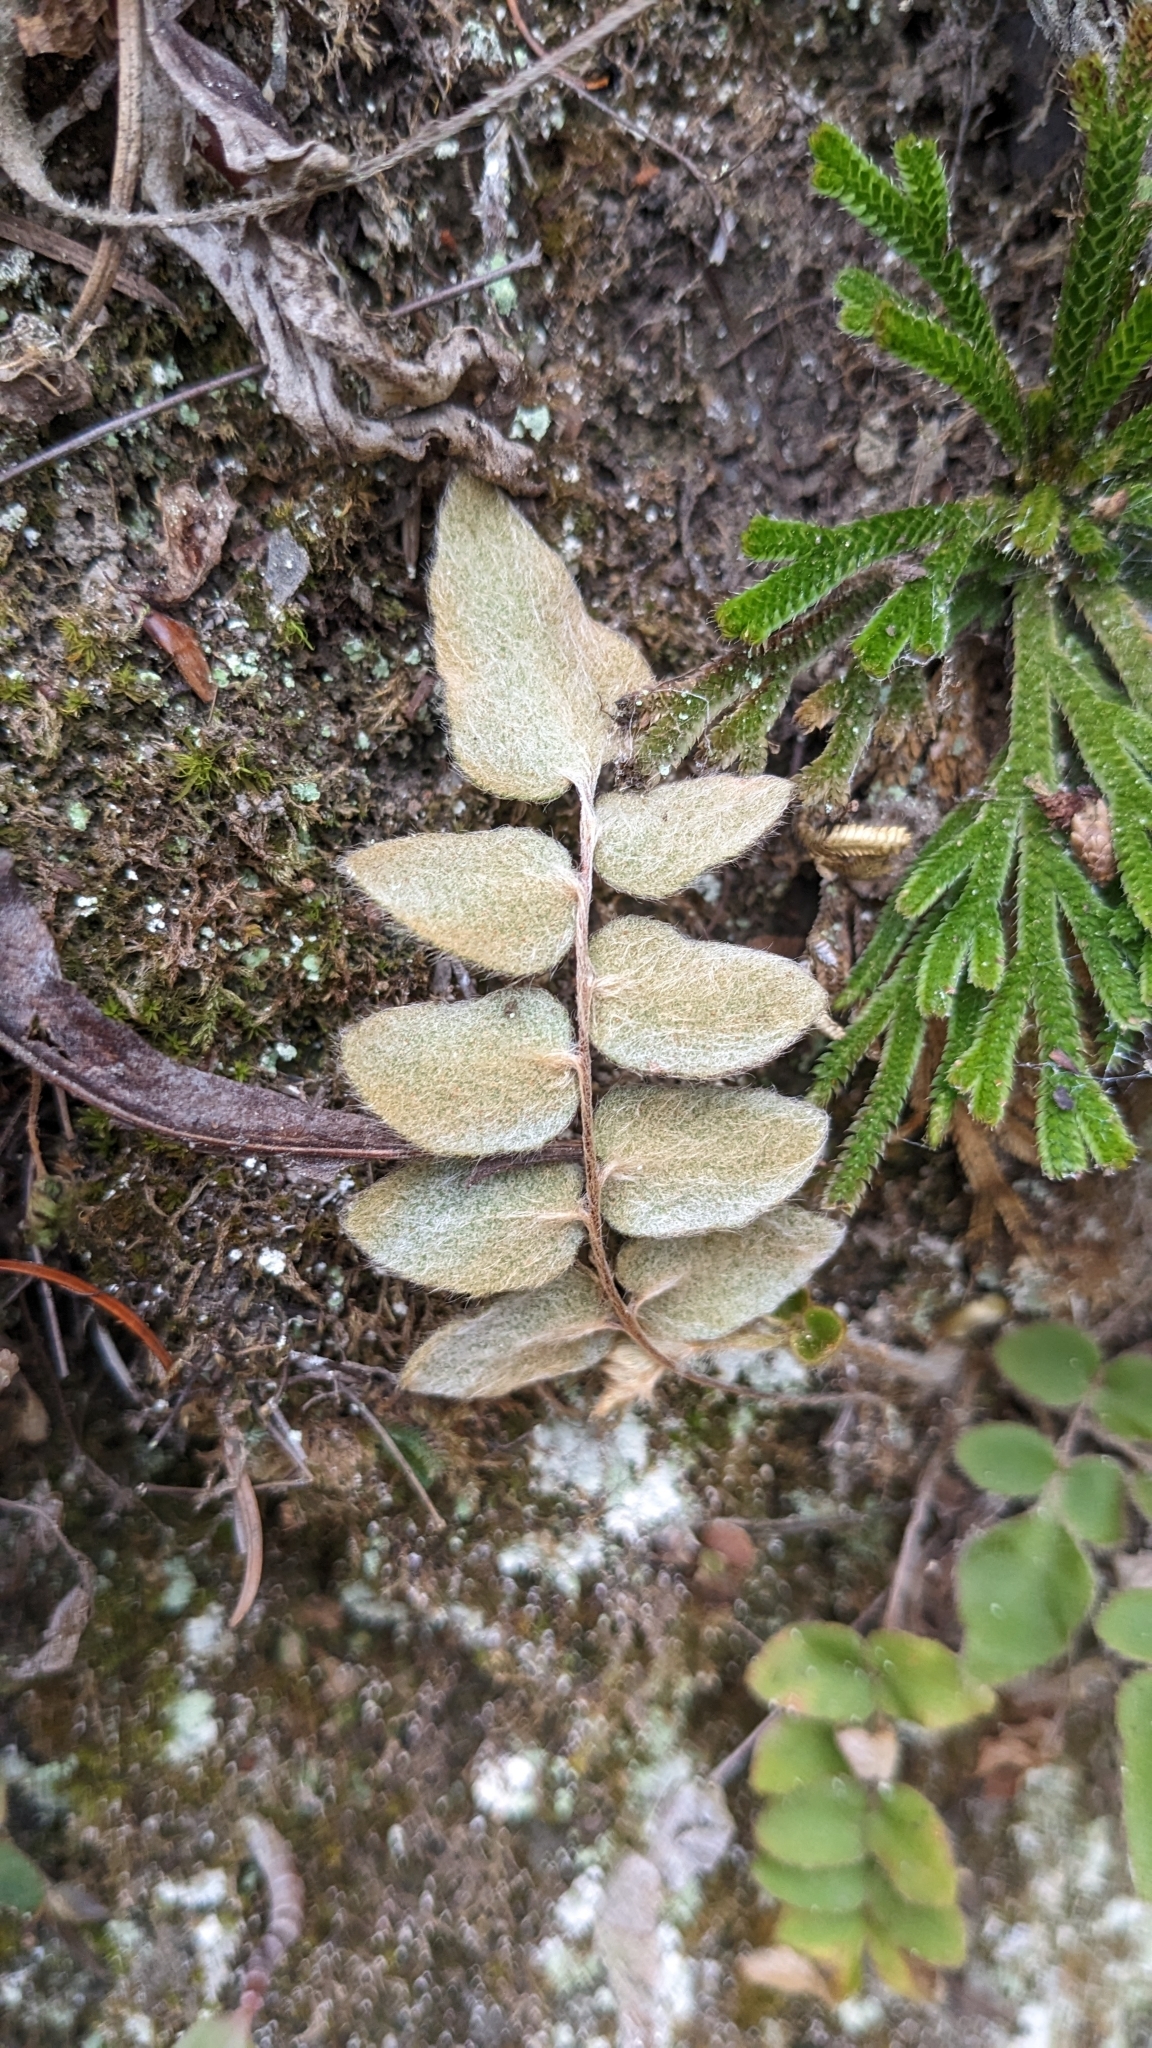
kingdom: Plantae
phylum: Tracheophyta
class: Polypodiopsida
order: Polypodiales
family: Pteridaceae
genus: Paragymnopteris
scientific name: Paragymnopteris vestita
